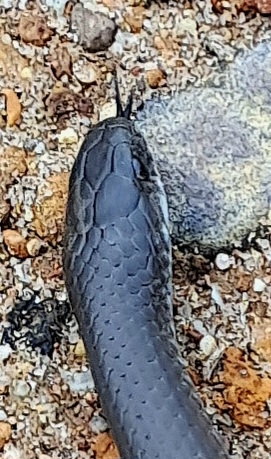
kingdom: Animalia
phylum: Chordata
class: Squamata
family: Pseudoxyrhophiidae
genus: Duberria
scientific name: Duberria lutrix
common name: Common slug eater
